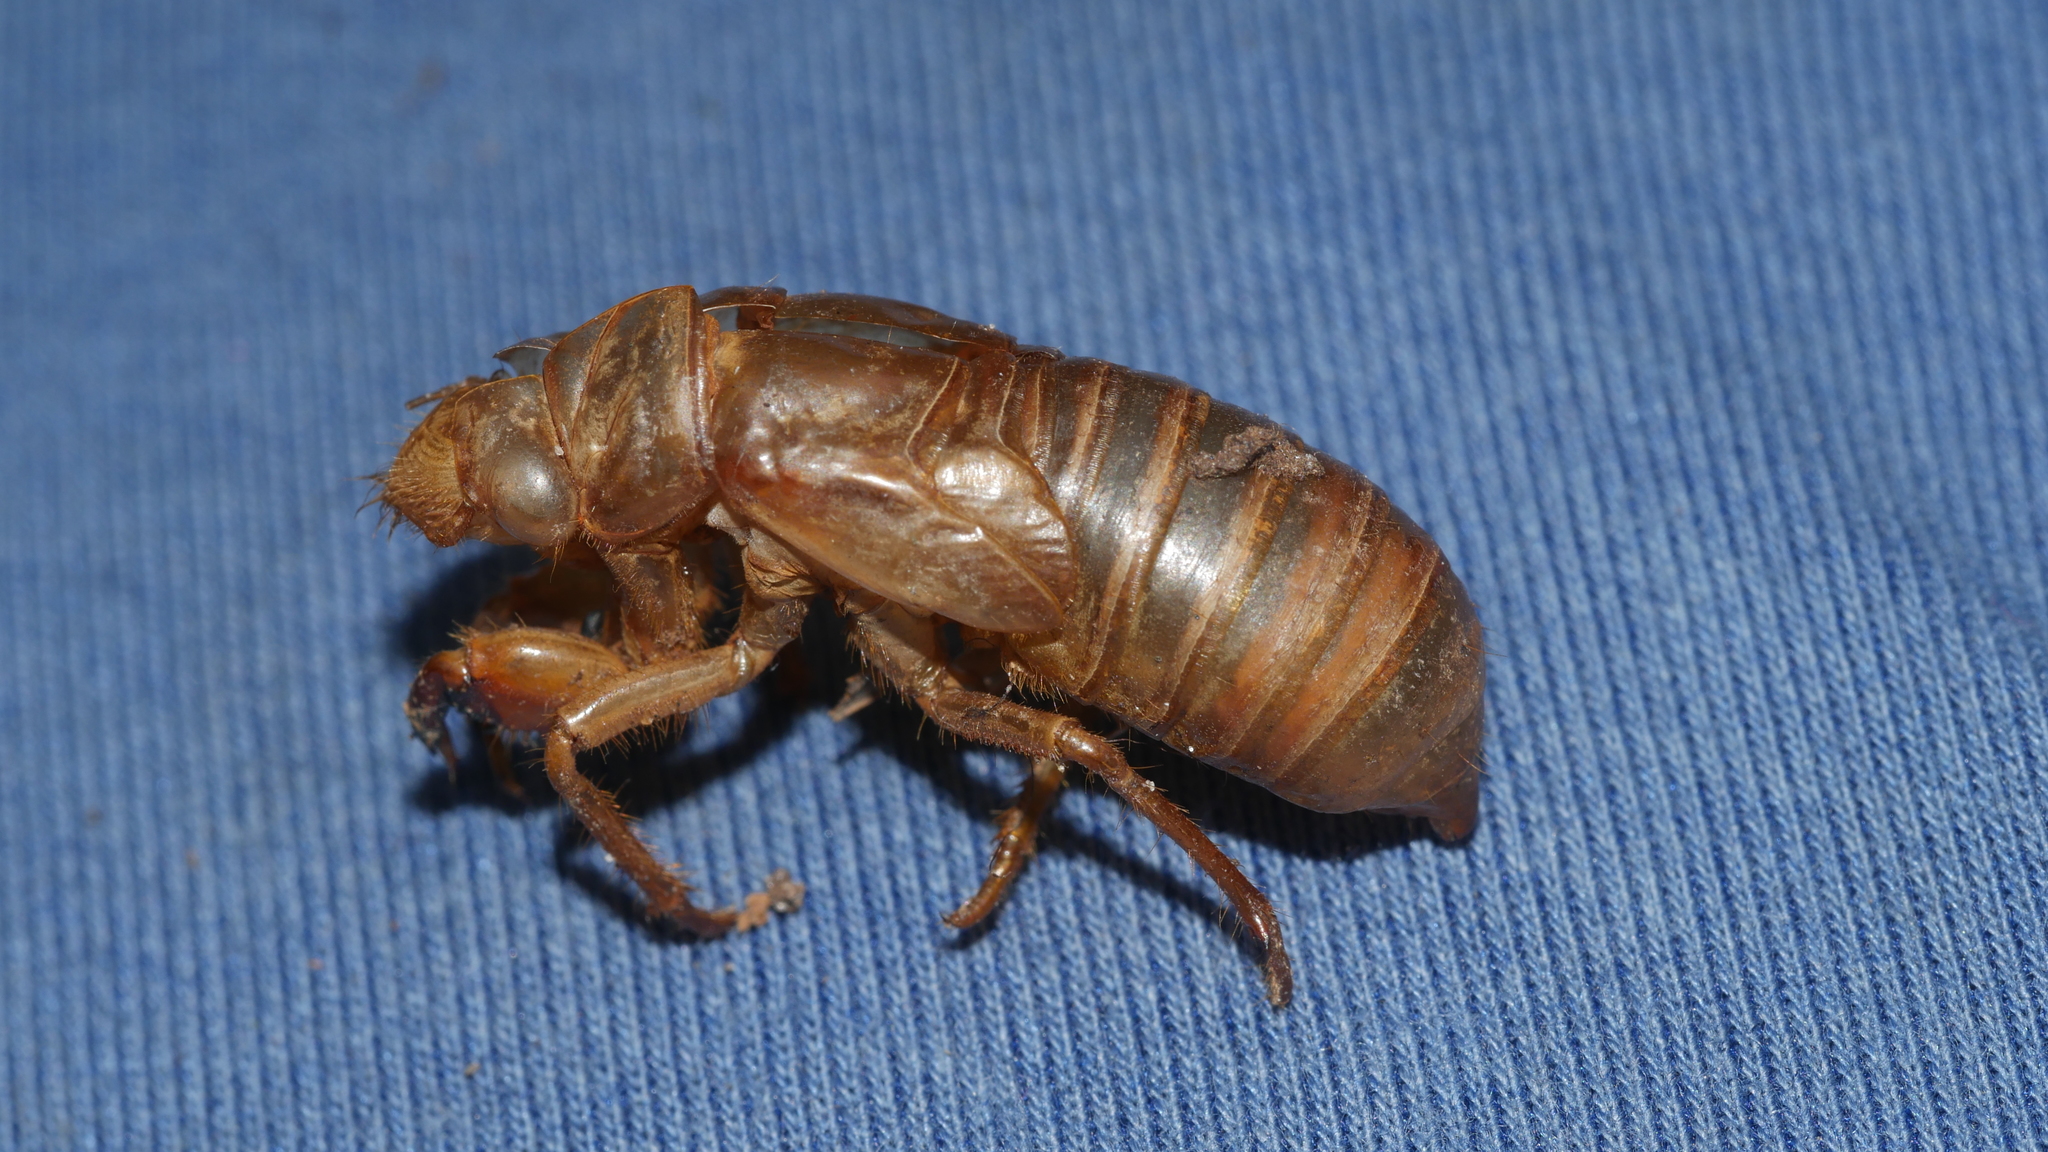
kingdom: Animalia
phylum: Arthropoda
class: Insecta
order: Hemiptera
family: Cicadidae
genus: Magicicada
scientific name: Magicicada
